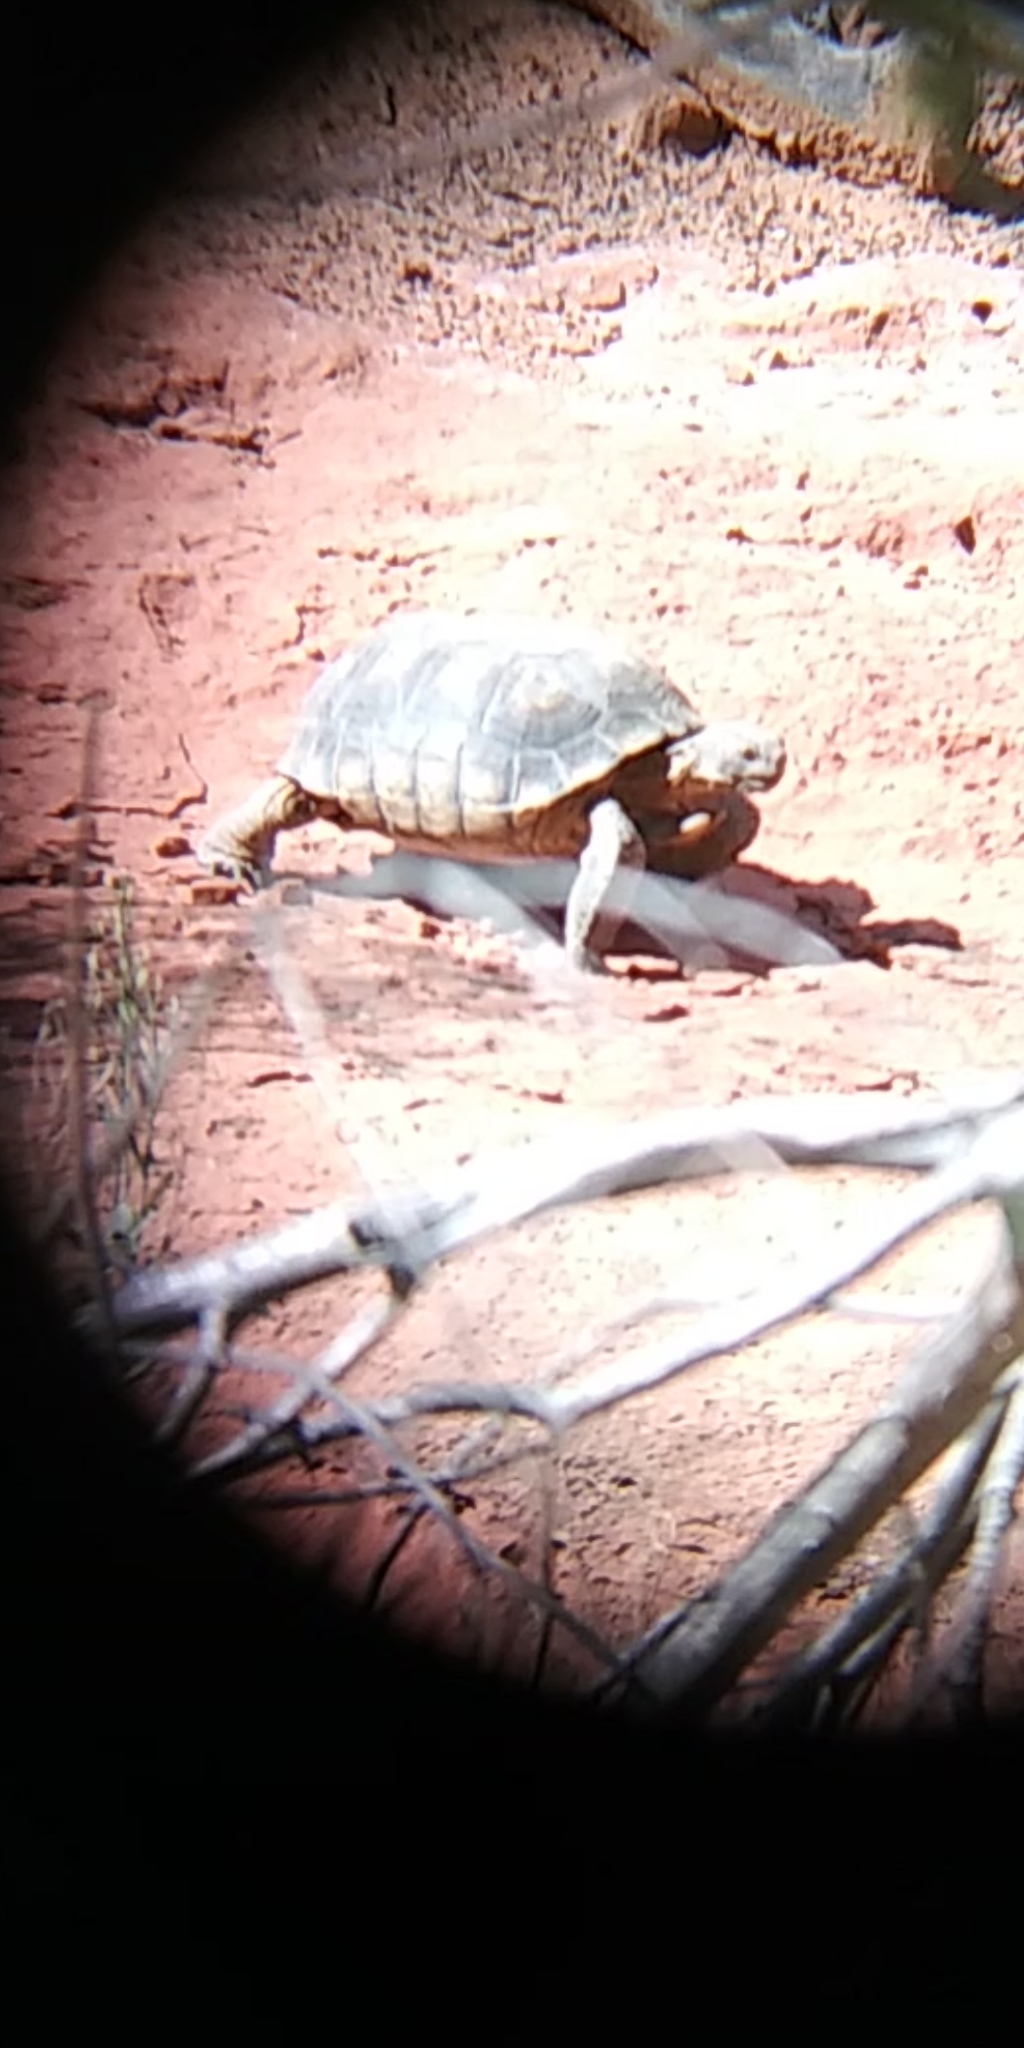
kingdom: Animalia
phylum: Chordata
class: Testudines
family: Testudinidae
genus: Gopherus
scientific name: Gopherus agassizii
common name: Mojave desert tortoise
